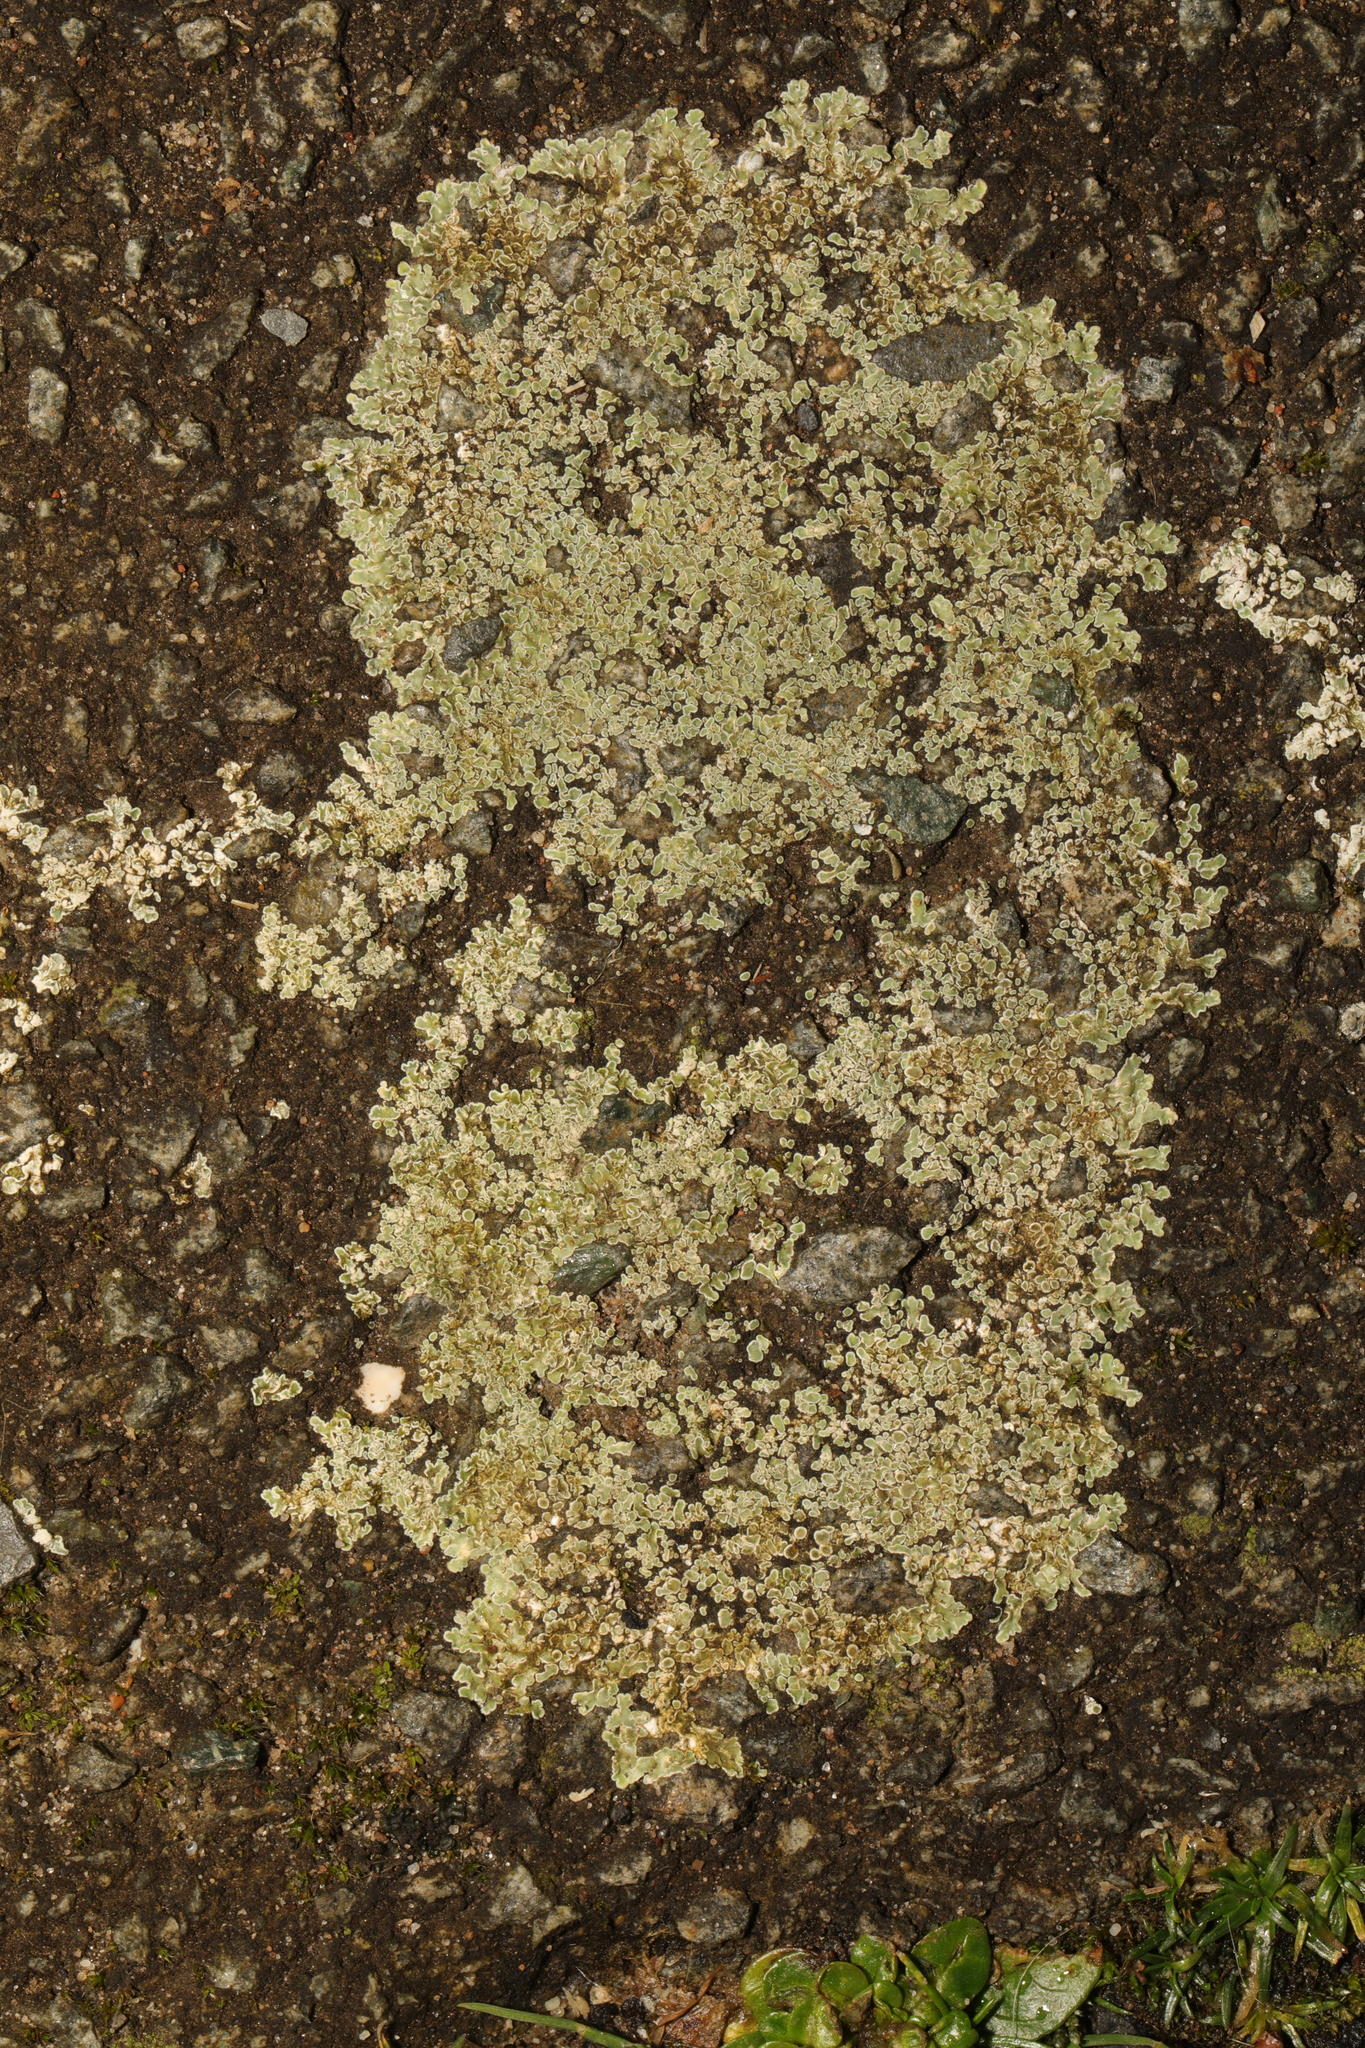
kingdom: Fungi
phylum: Ascomycota
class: Lecanoromycetes
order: Lecanorales
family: Lecanoraceae
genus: Protoparmeliopsis
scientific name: Protoparmeliopsis muralis
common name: Stonewall rim lichen
